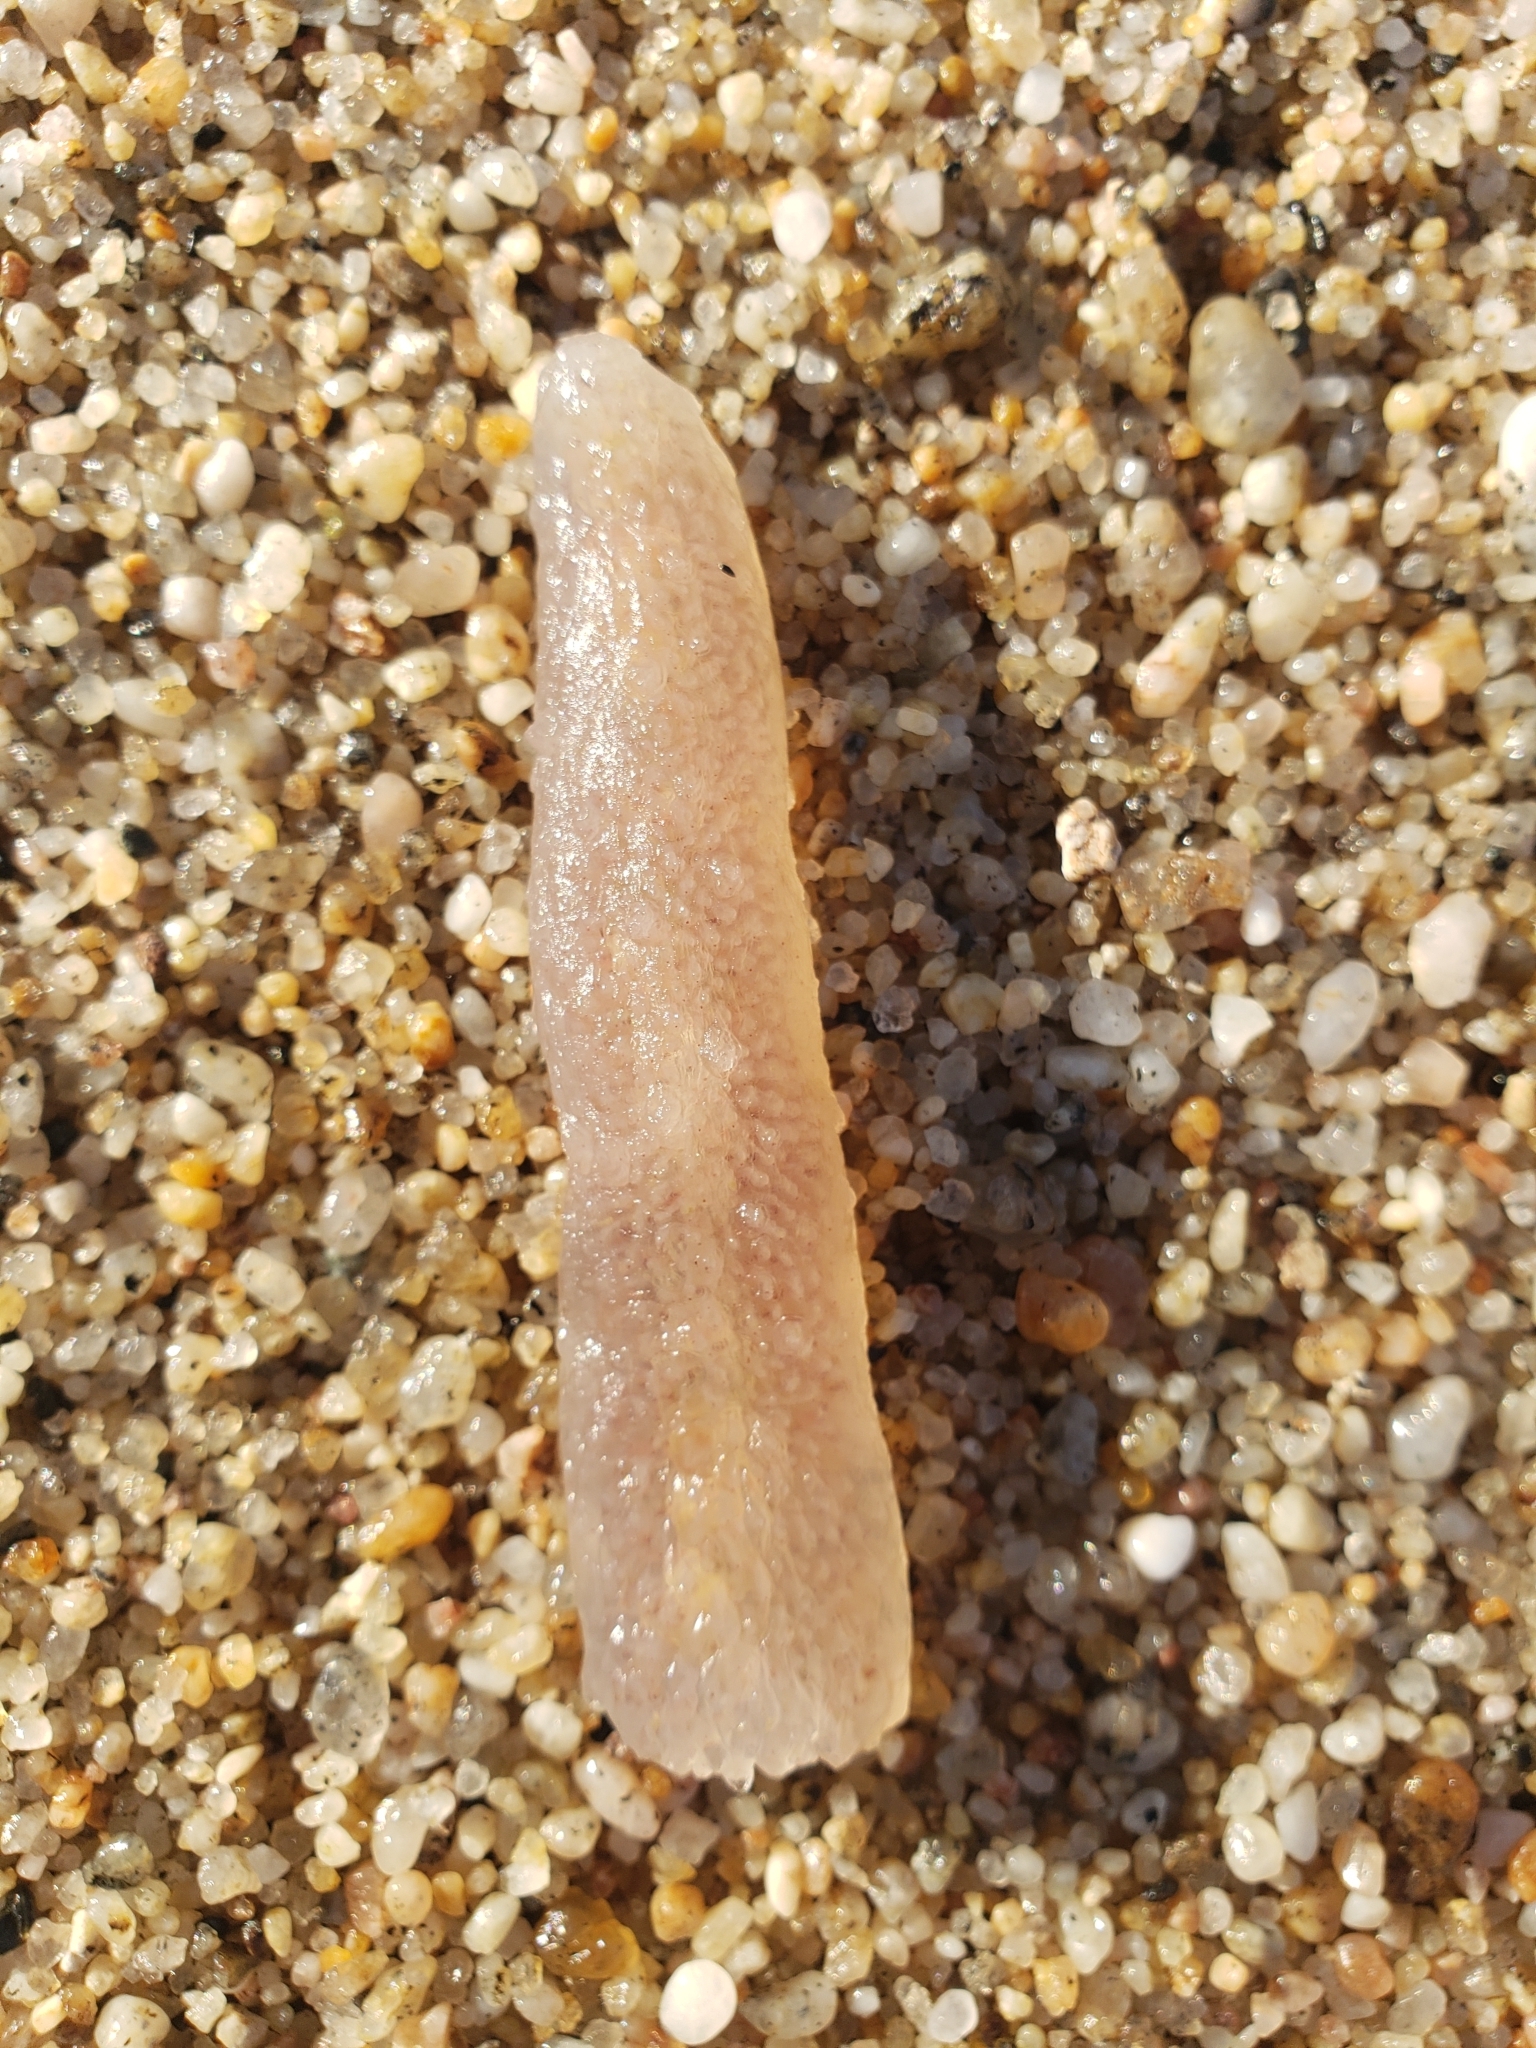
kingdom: Animalia
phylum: Chordata
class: Thaliacea
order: Pyrosomatida
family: Pyrosomatidae
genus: Pyrosoma
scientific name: Pyrosoma atlanticum
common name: Atlantic pyrosomes
